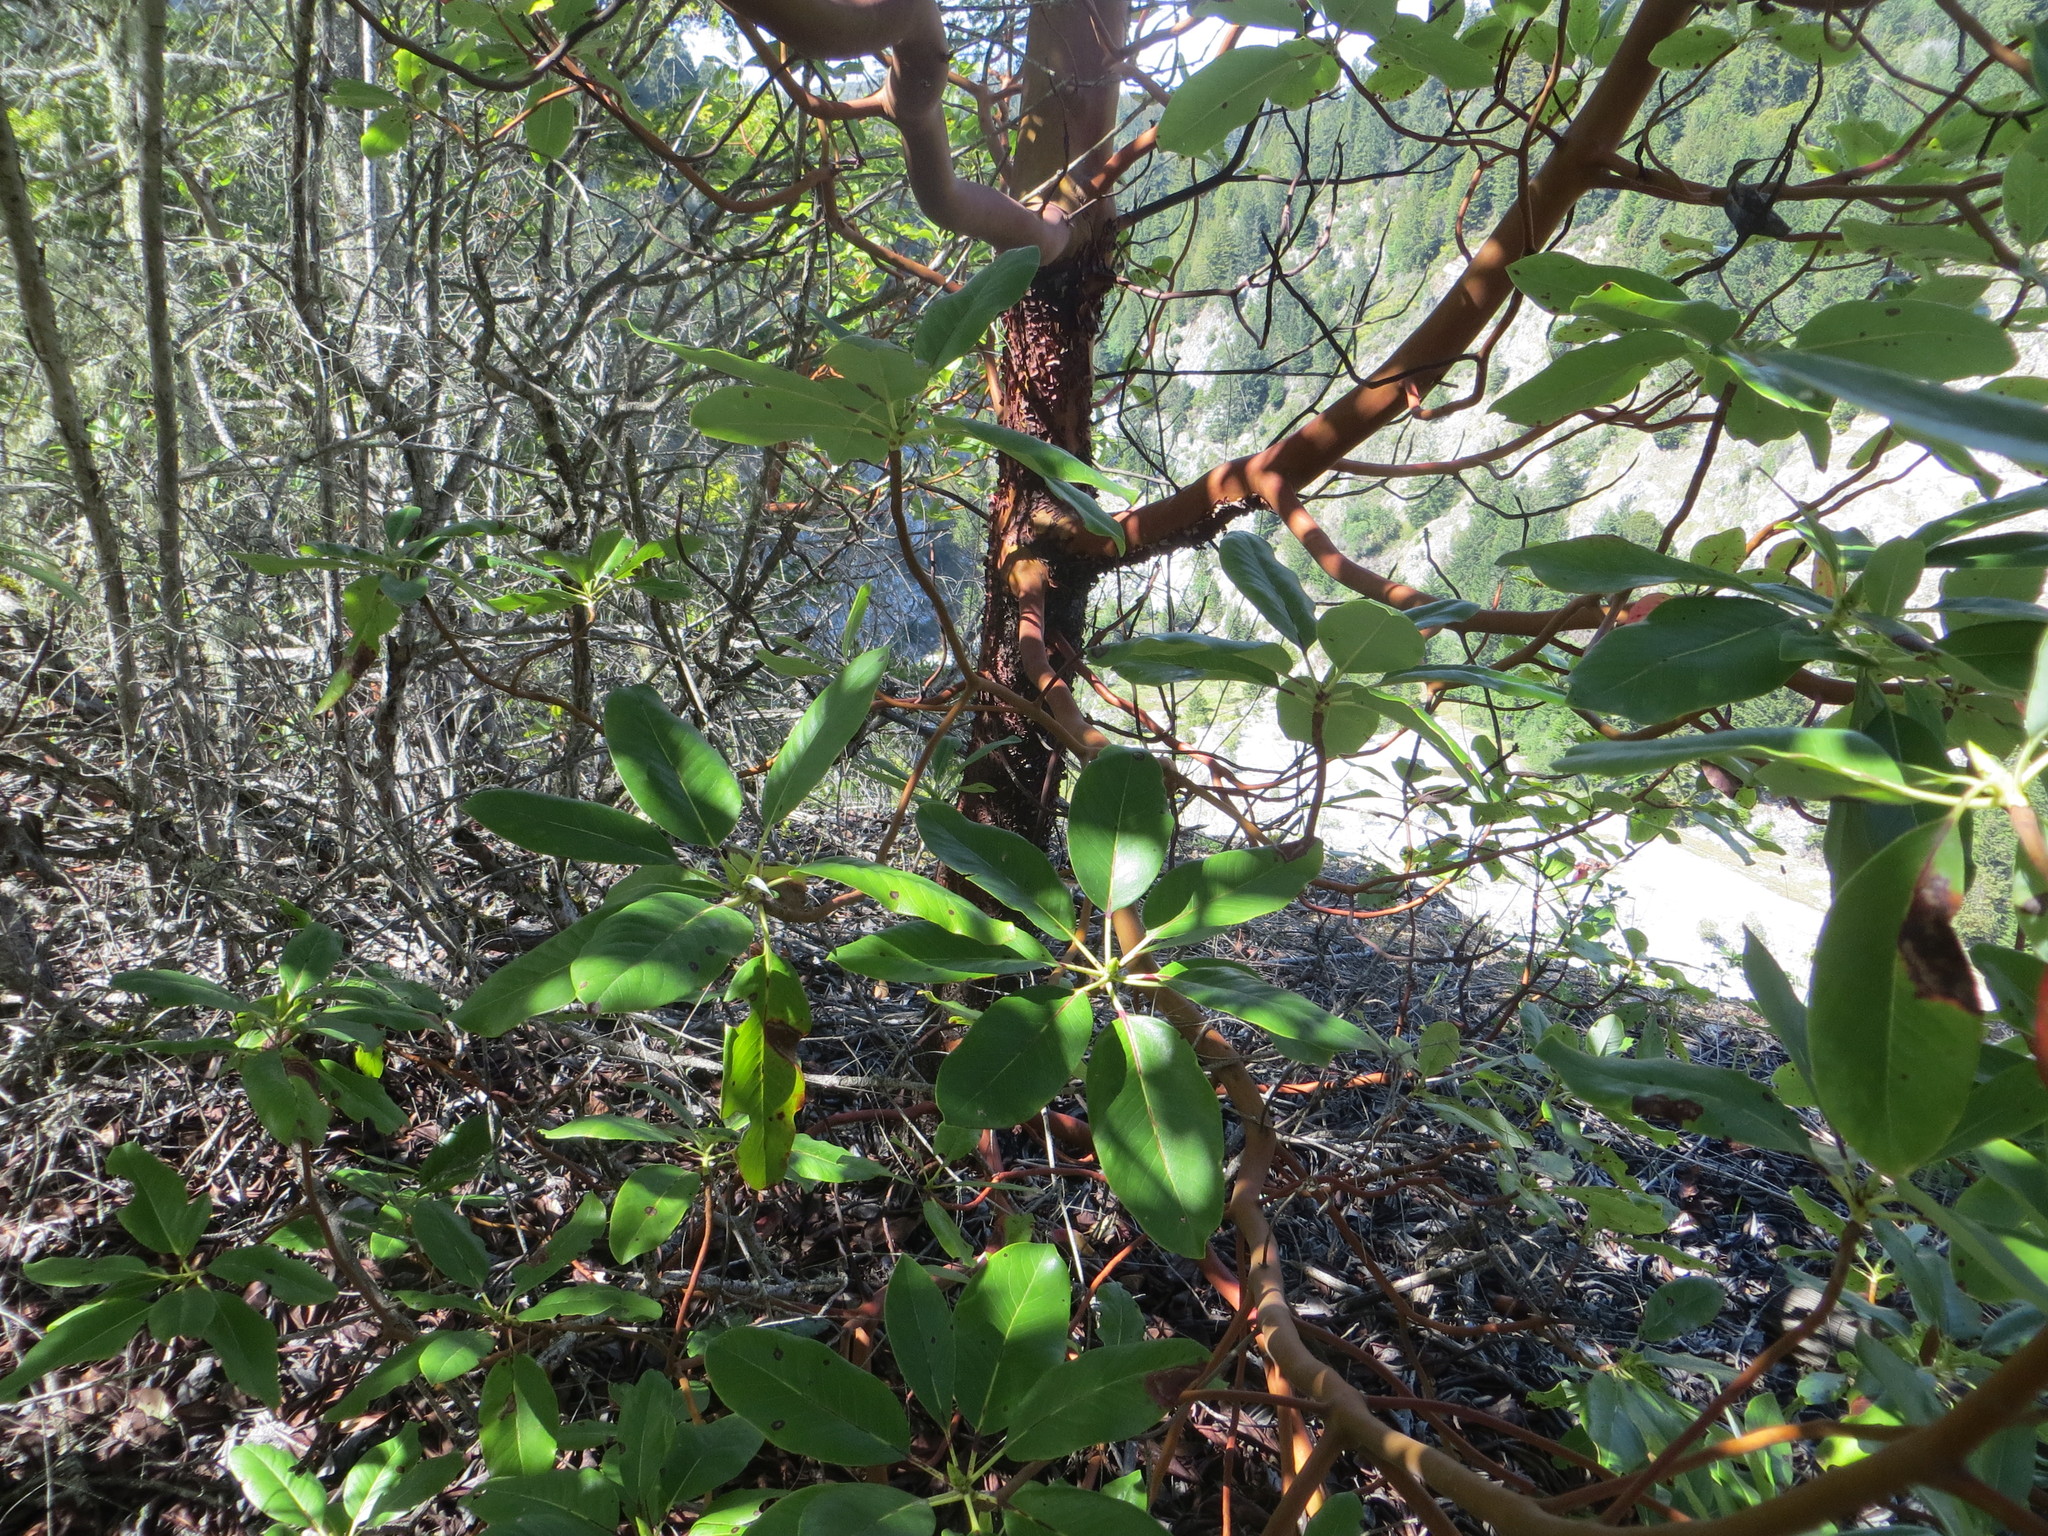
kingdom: Plantae
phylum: Tracheophyta
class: Magnoliopsida
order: Ericales
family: Ericaceae
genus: Arbutus
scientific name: Arbutus menziesii
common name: Pacific madrone
